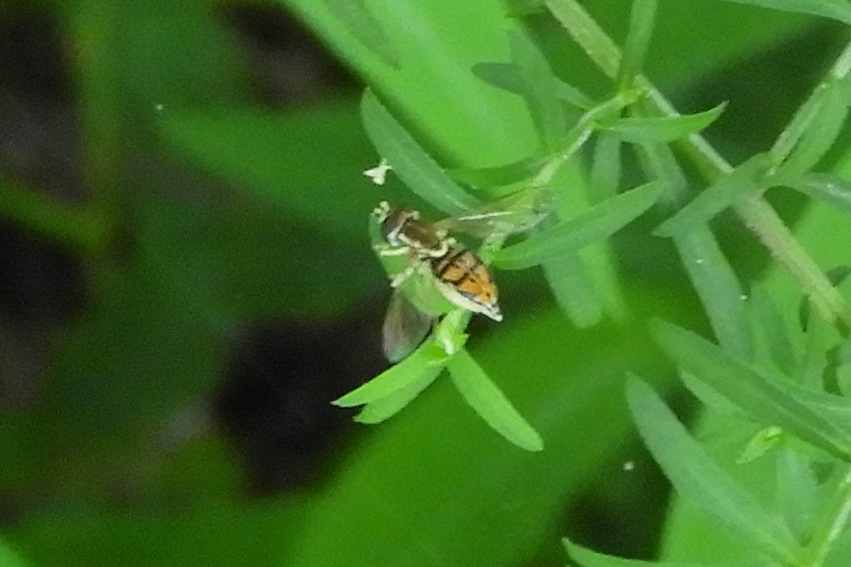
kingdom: Animalia
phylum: Arthropoda
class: Insecta
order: Diptera
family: Syrphidae
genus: Toxomerus
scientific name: Toxomerus marginatus
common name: Syrphid fly
